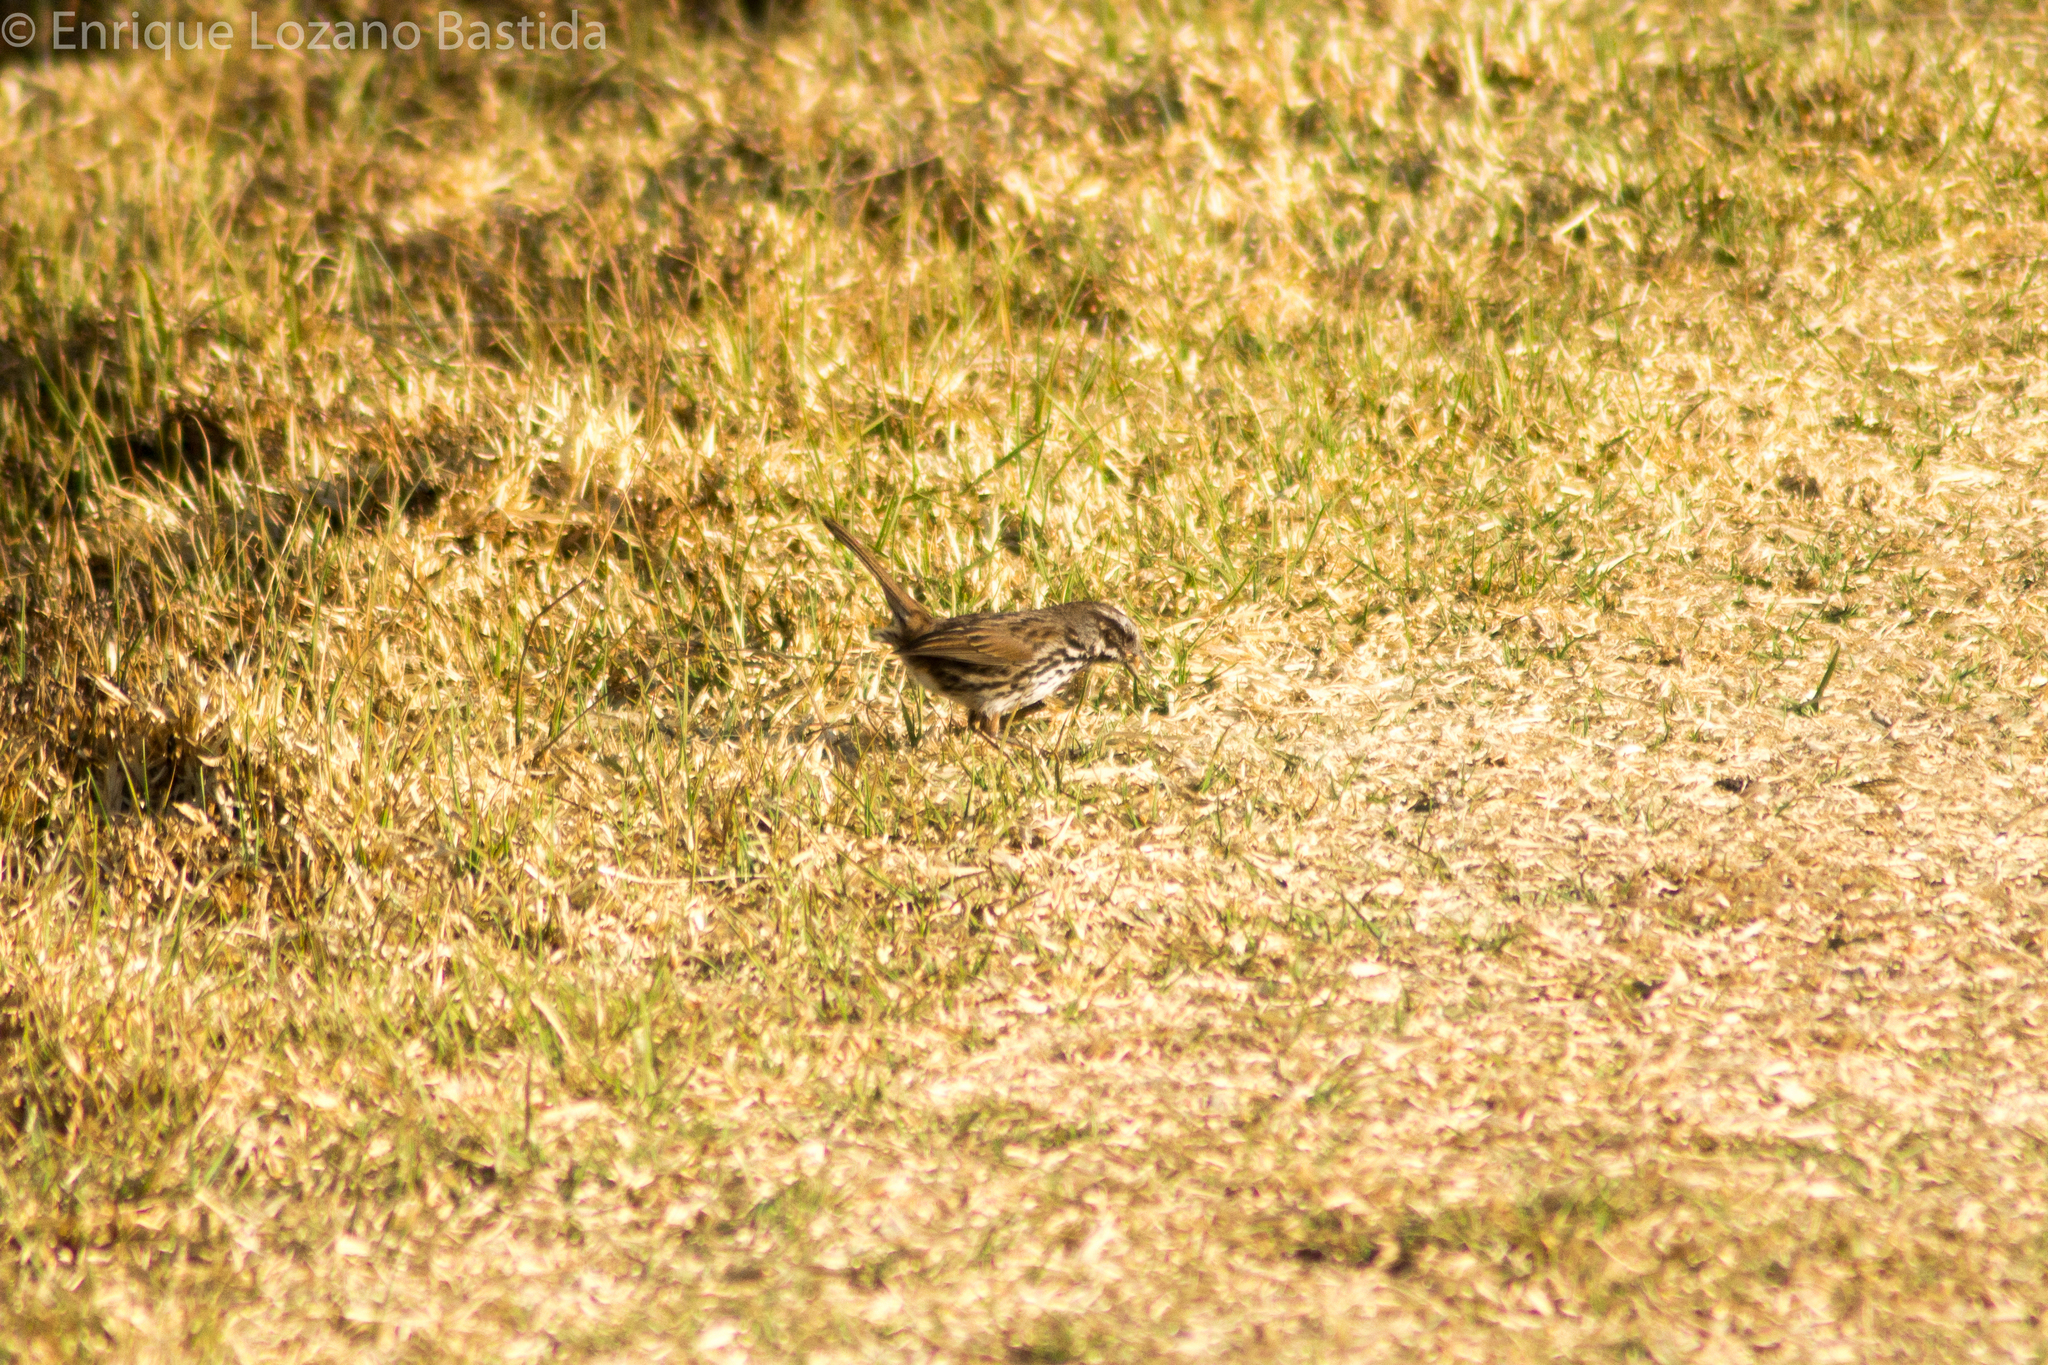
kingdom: Animalia
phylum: Chordata
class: Aves
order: Passeriformes
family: Passerellidae
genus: Melospiza
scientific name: Melospiza melodia
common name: Song sparrow
